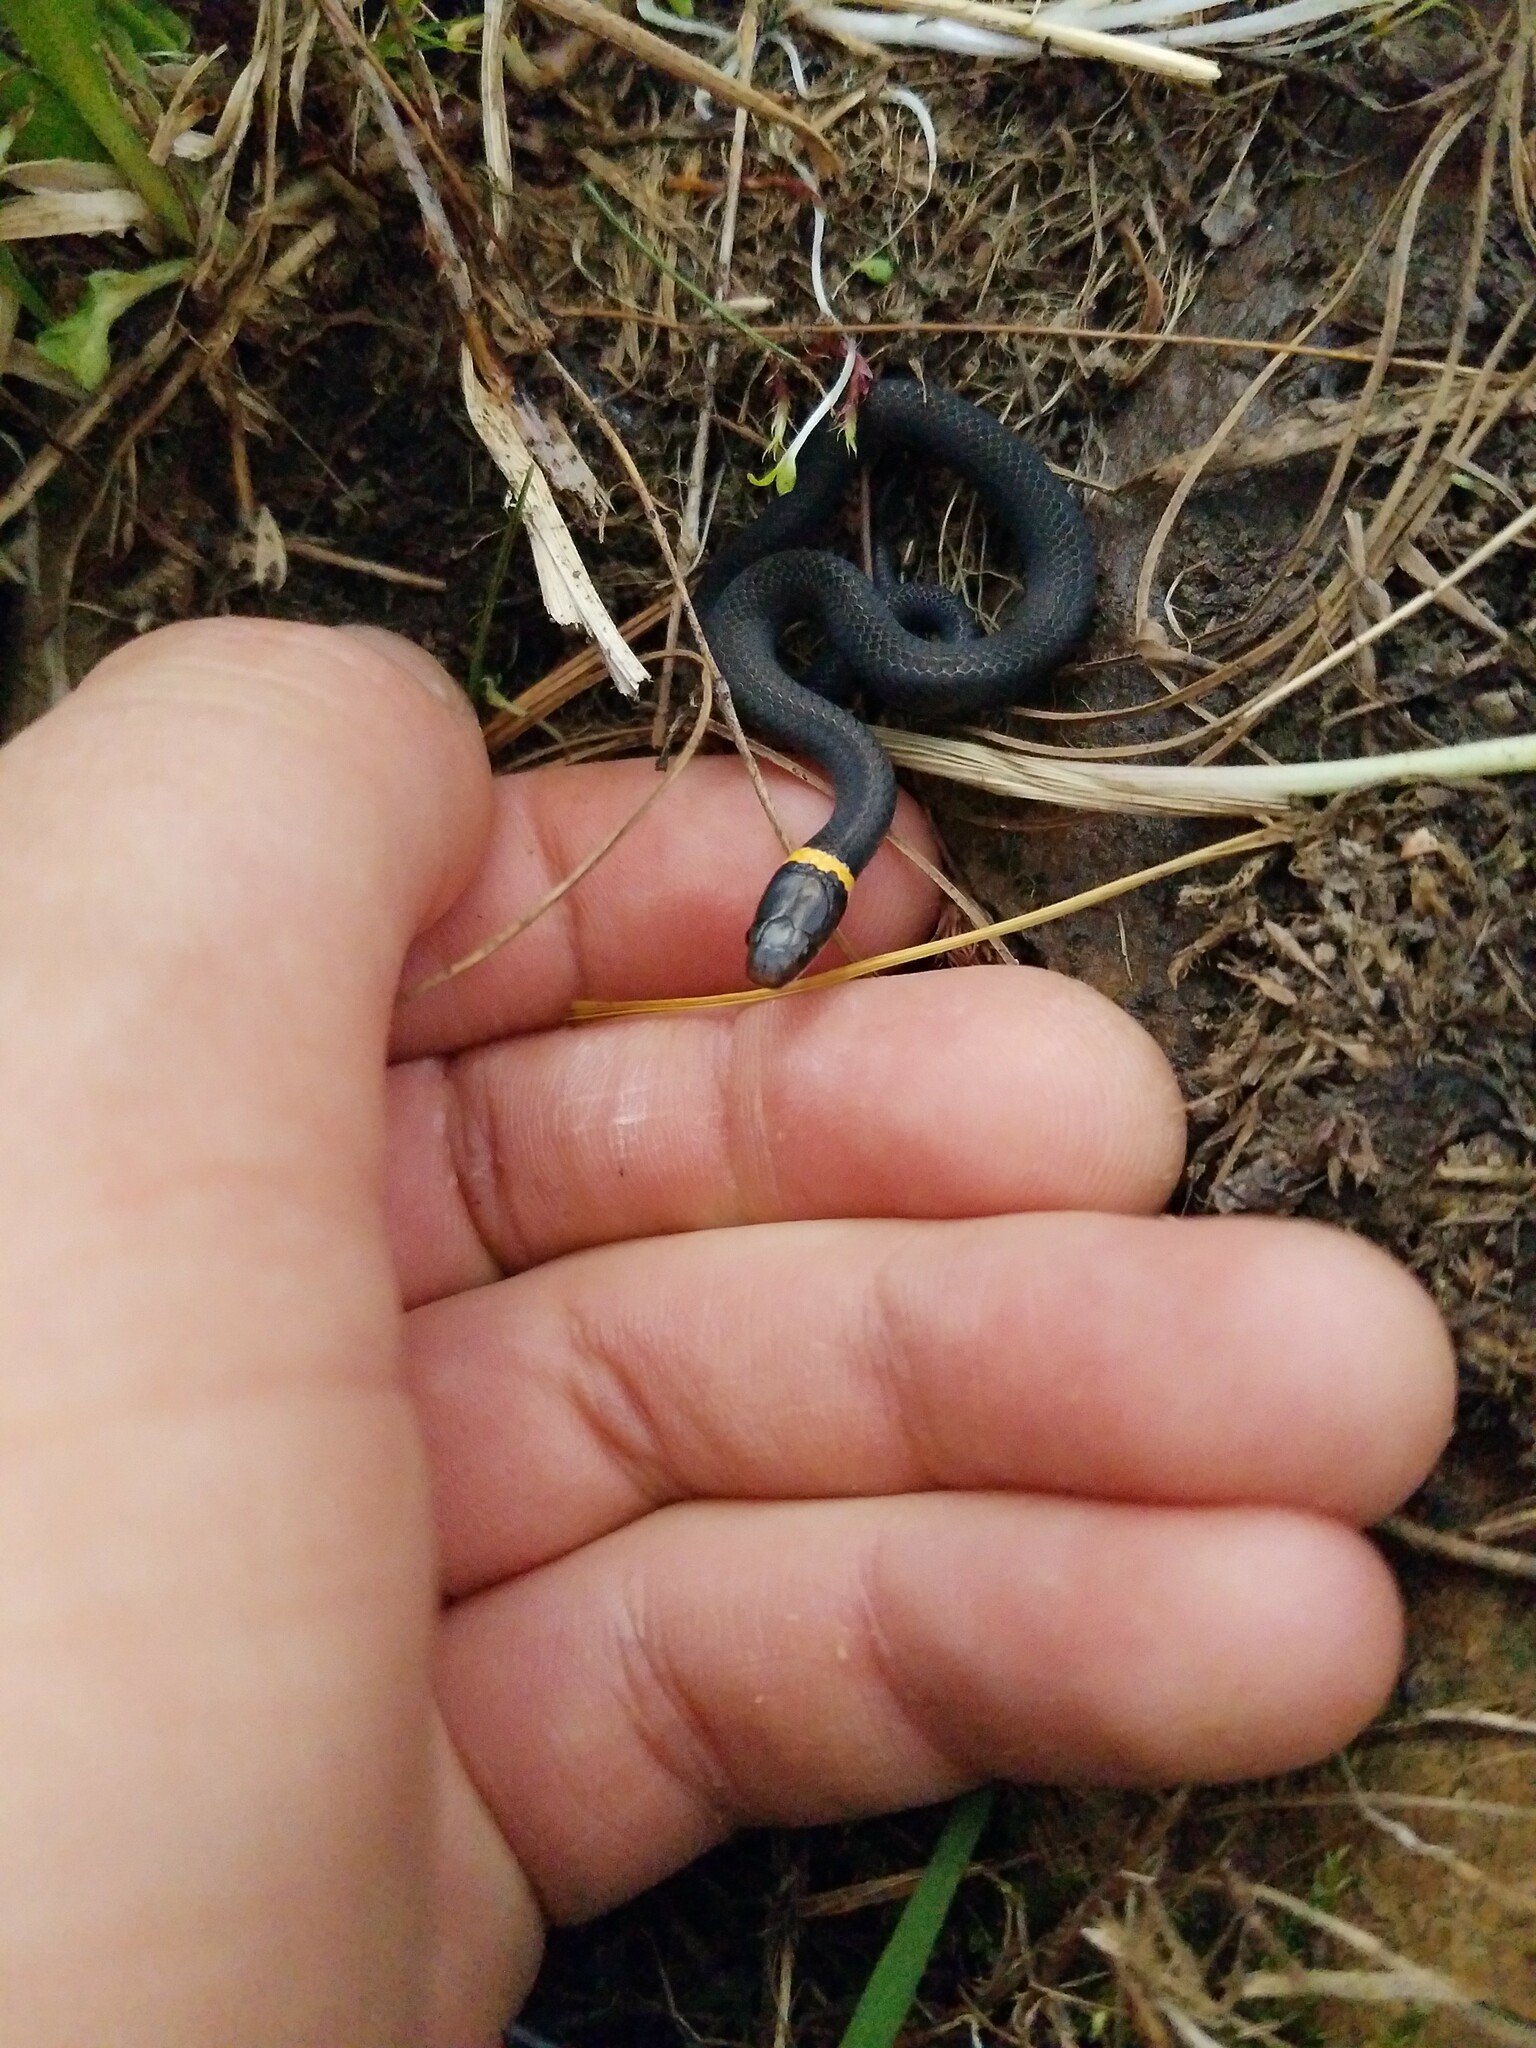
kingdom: Animalia
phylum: Chordata
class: Squamata
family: Colubridae
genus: Diadophis
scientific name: Diadophis punctatus
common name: Ringneck snake
